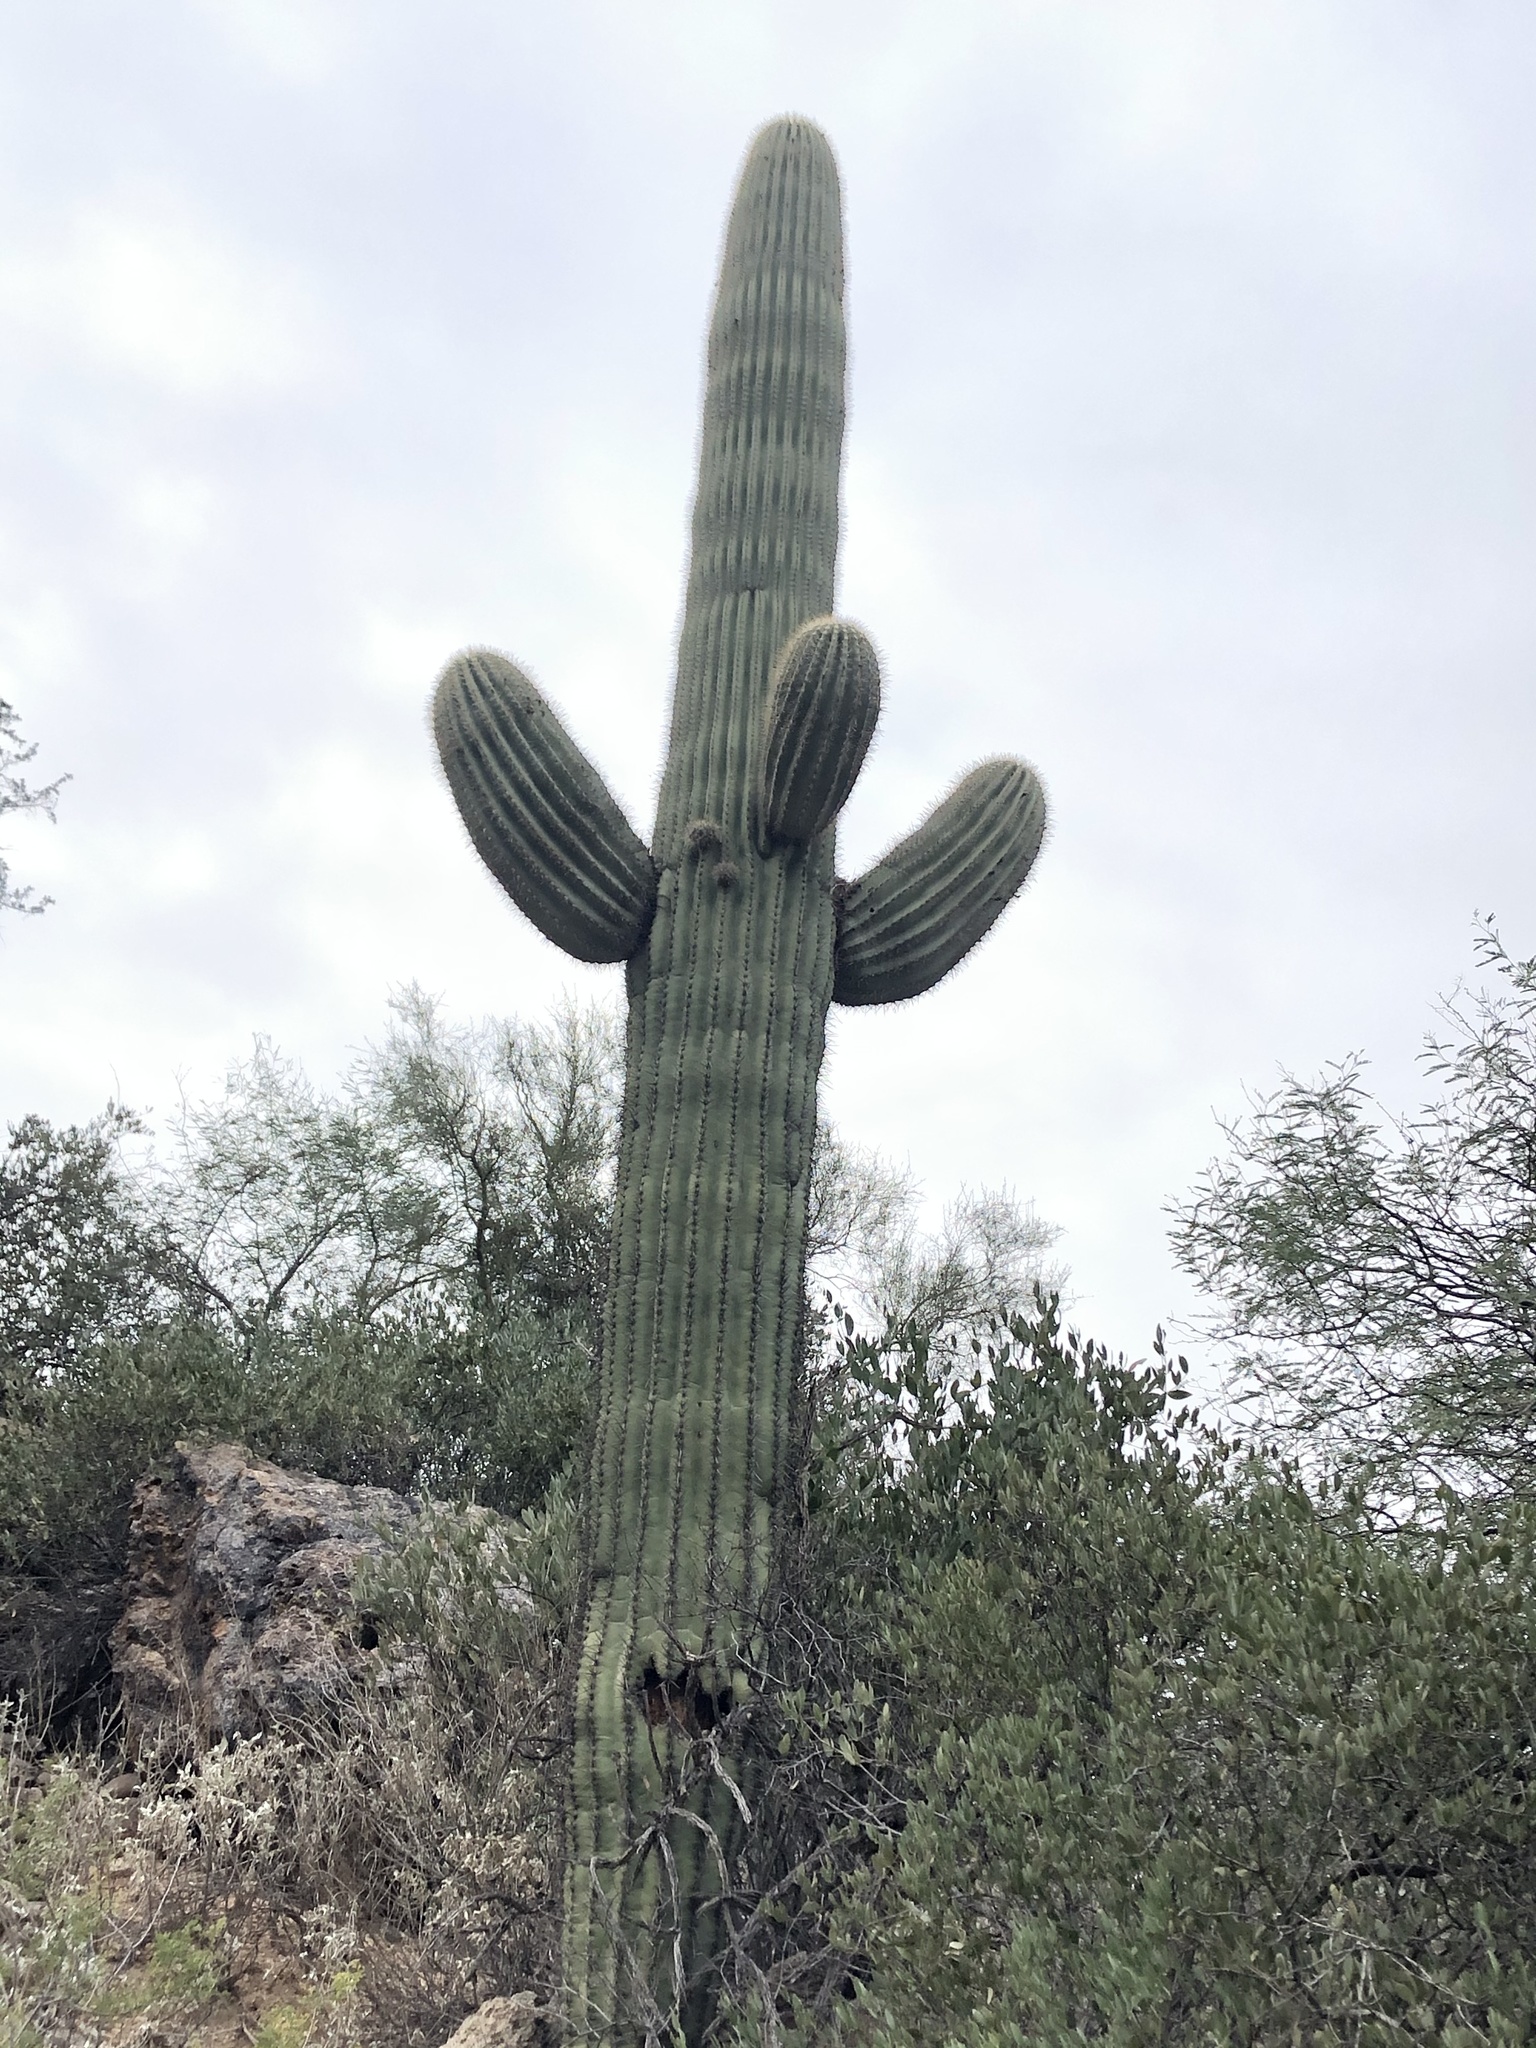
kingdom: Plantae
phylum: Tracheophyta
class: Magnoliopsida
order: Caryophyllales
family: Cactaceae
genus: Carnegiea
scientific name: Carnegiea gigantea
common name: Saguaro
